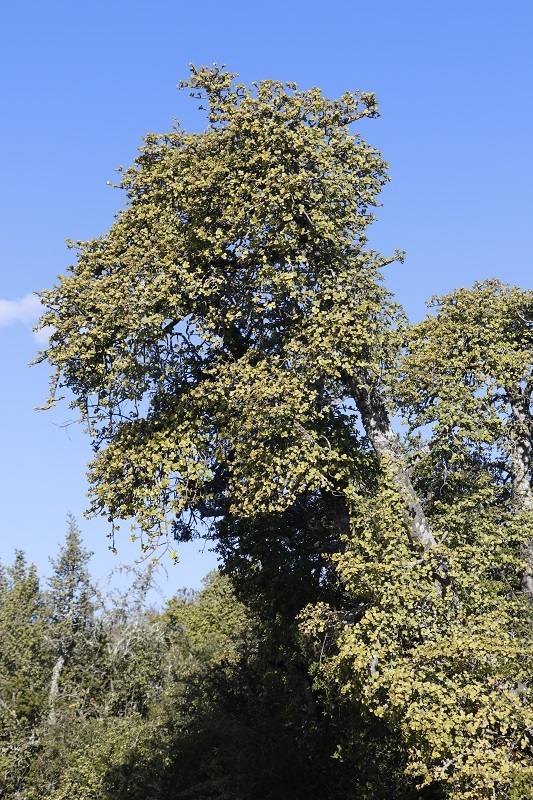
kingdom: Plantae
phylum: Tracheophyta
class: Magnoliopsida
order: Caryophyllales
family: Didiereaceae
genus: Portulacaria
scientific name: Portulacaria afra
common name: Elephant-bush
